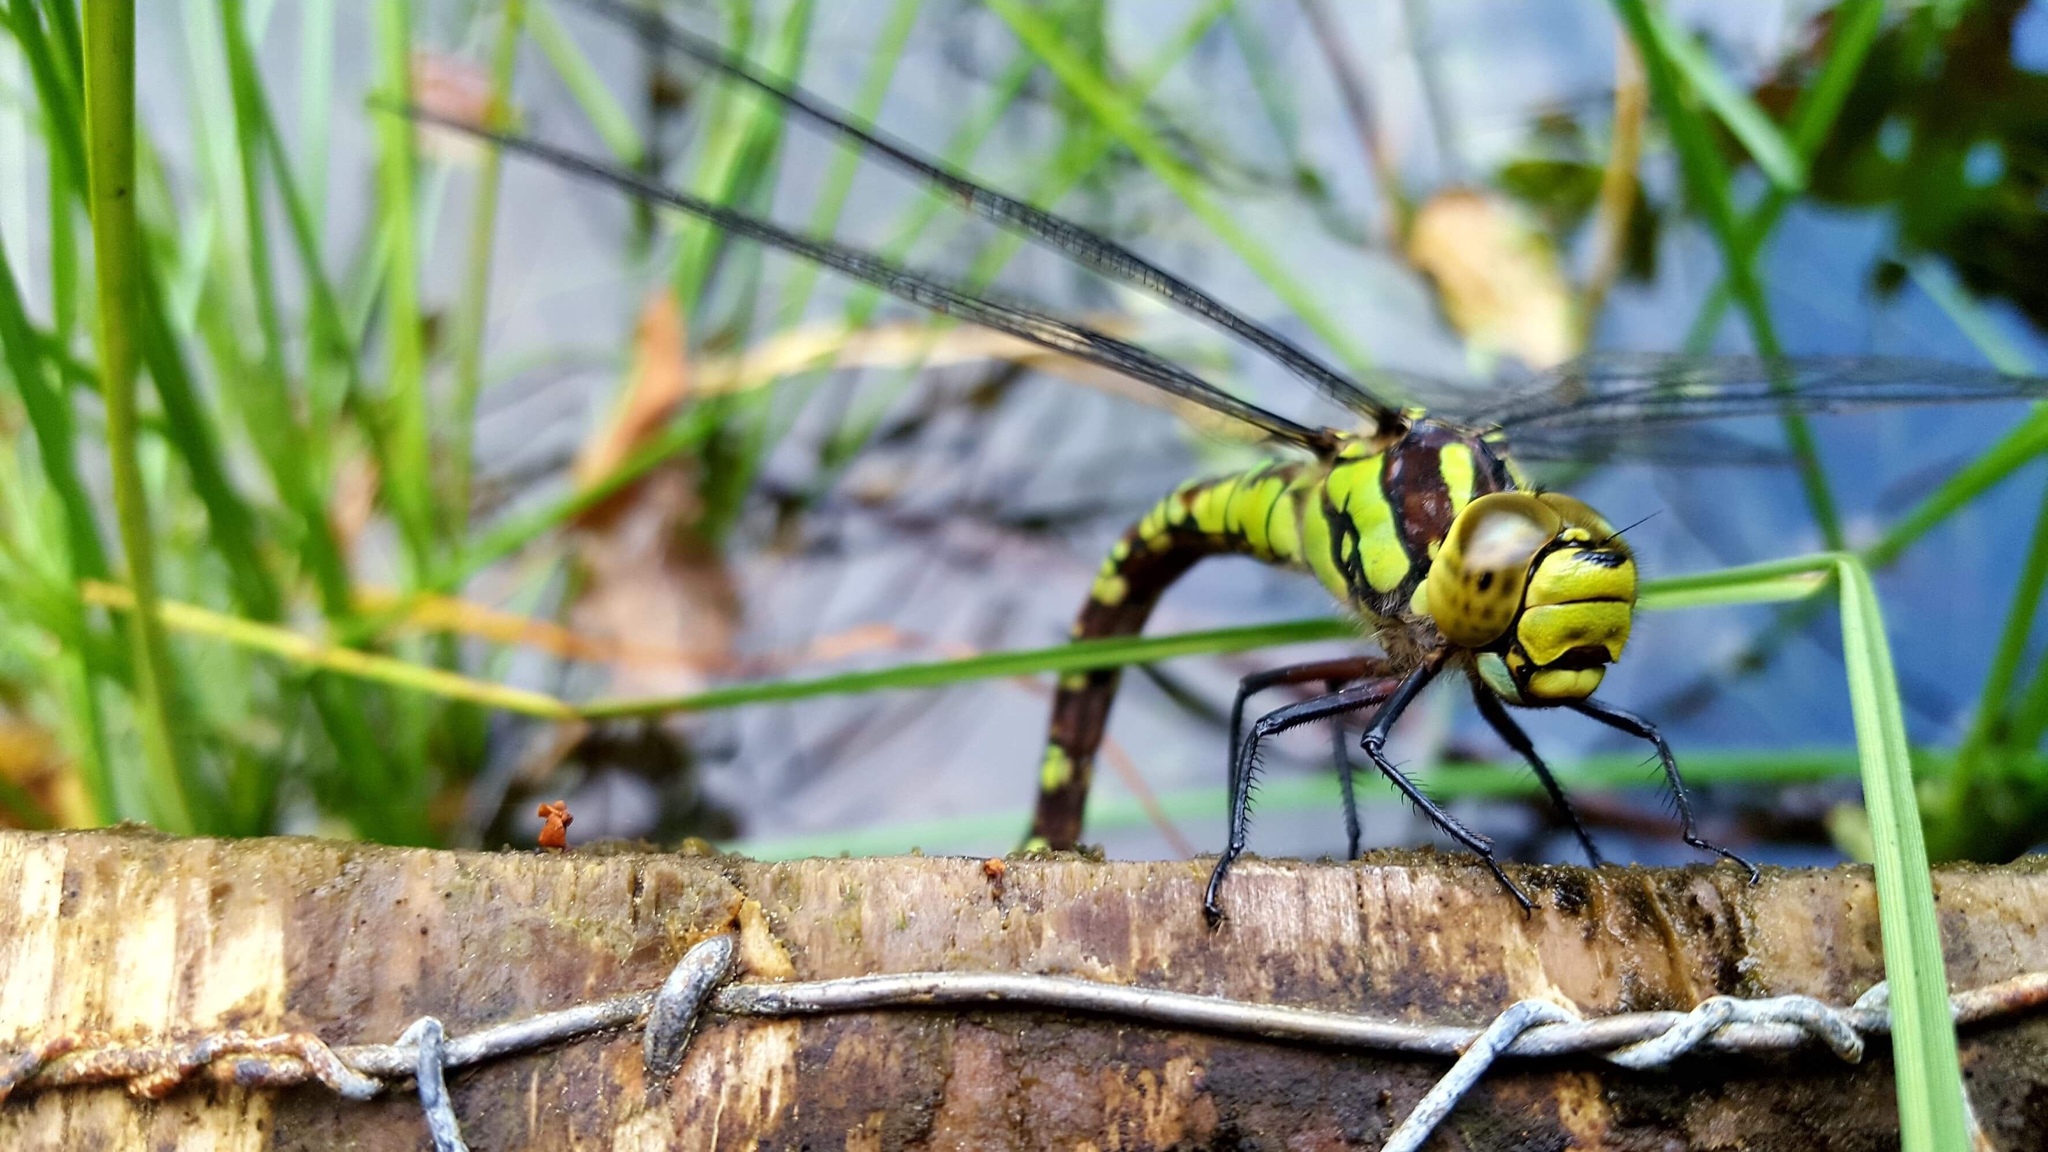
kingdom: Animalia
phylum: Arthropoda
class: Insecta
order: Odonata
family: Aeshnidae
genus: Aeshna
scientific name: Aeshna cyanea
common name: Southern hawker
